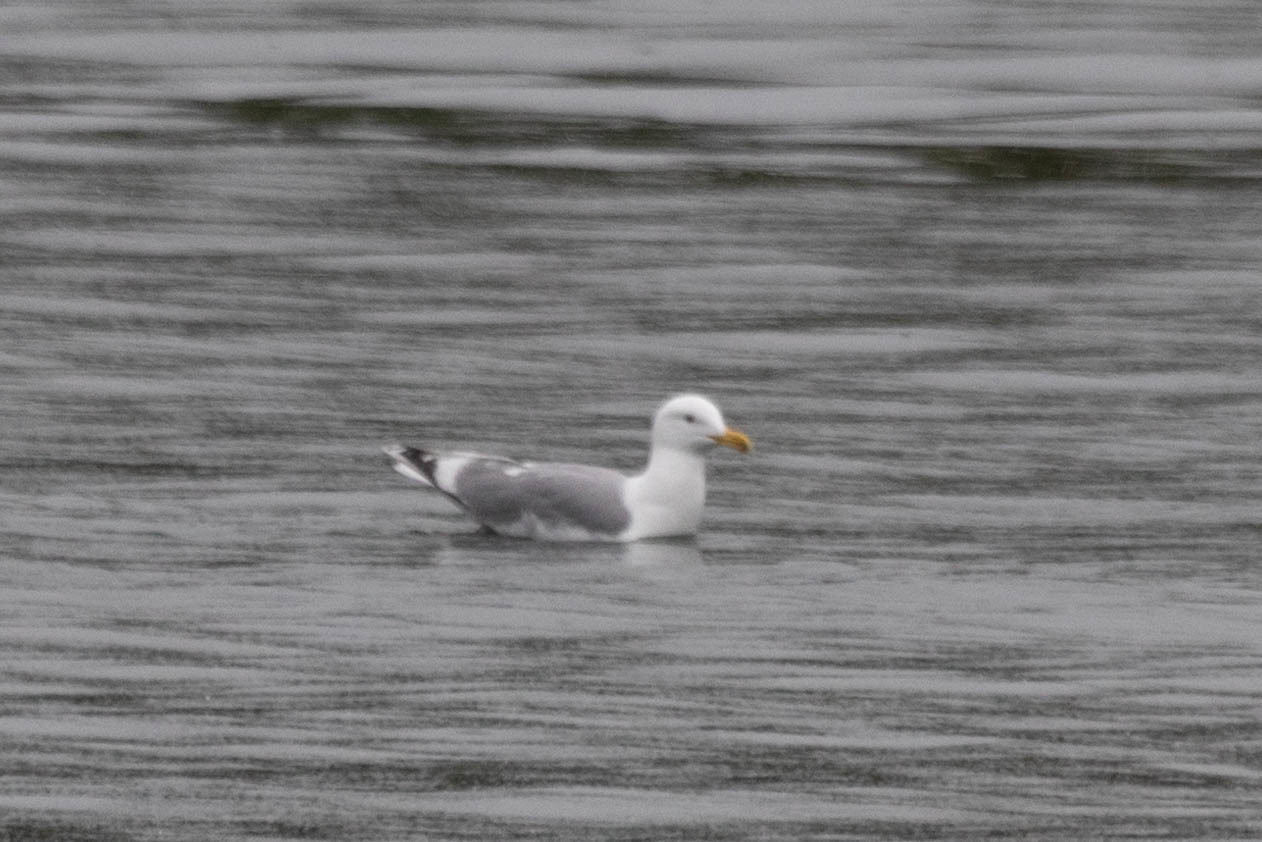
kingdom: Animalia
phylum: Chordata
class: Aves
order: Charadriiformes
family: Laridae
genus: Larus
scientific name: Larus
